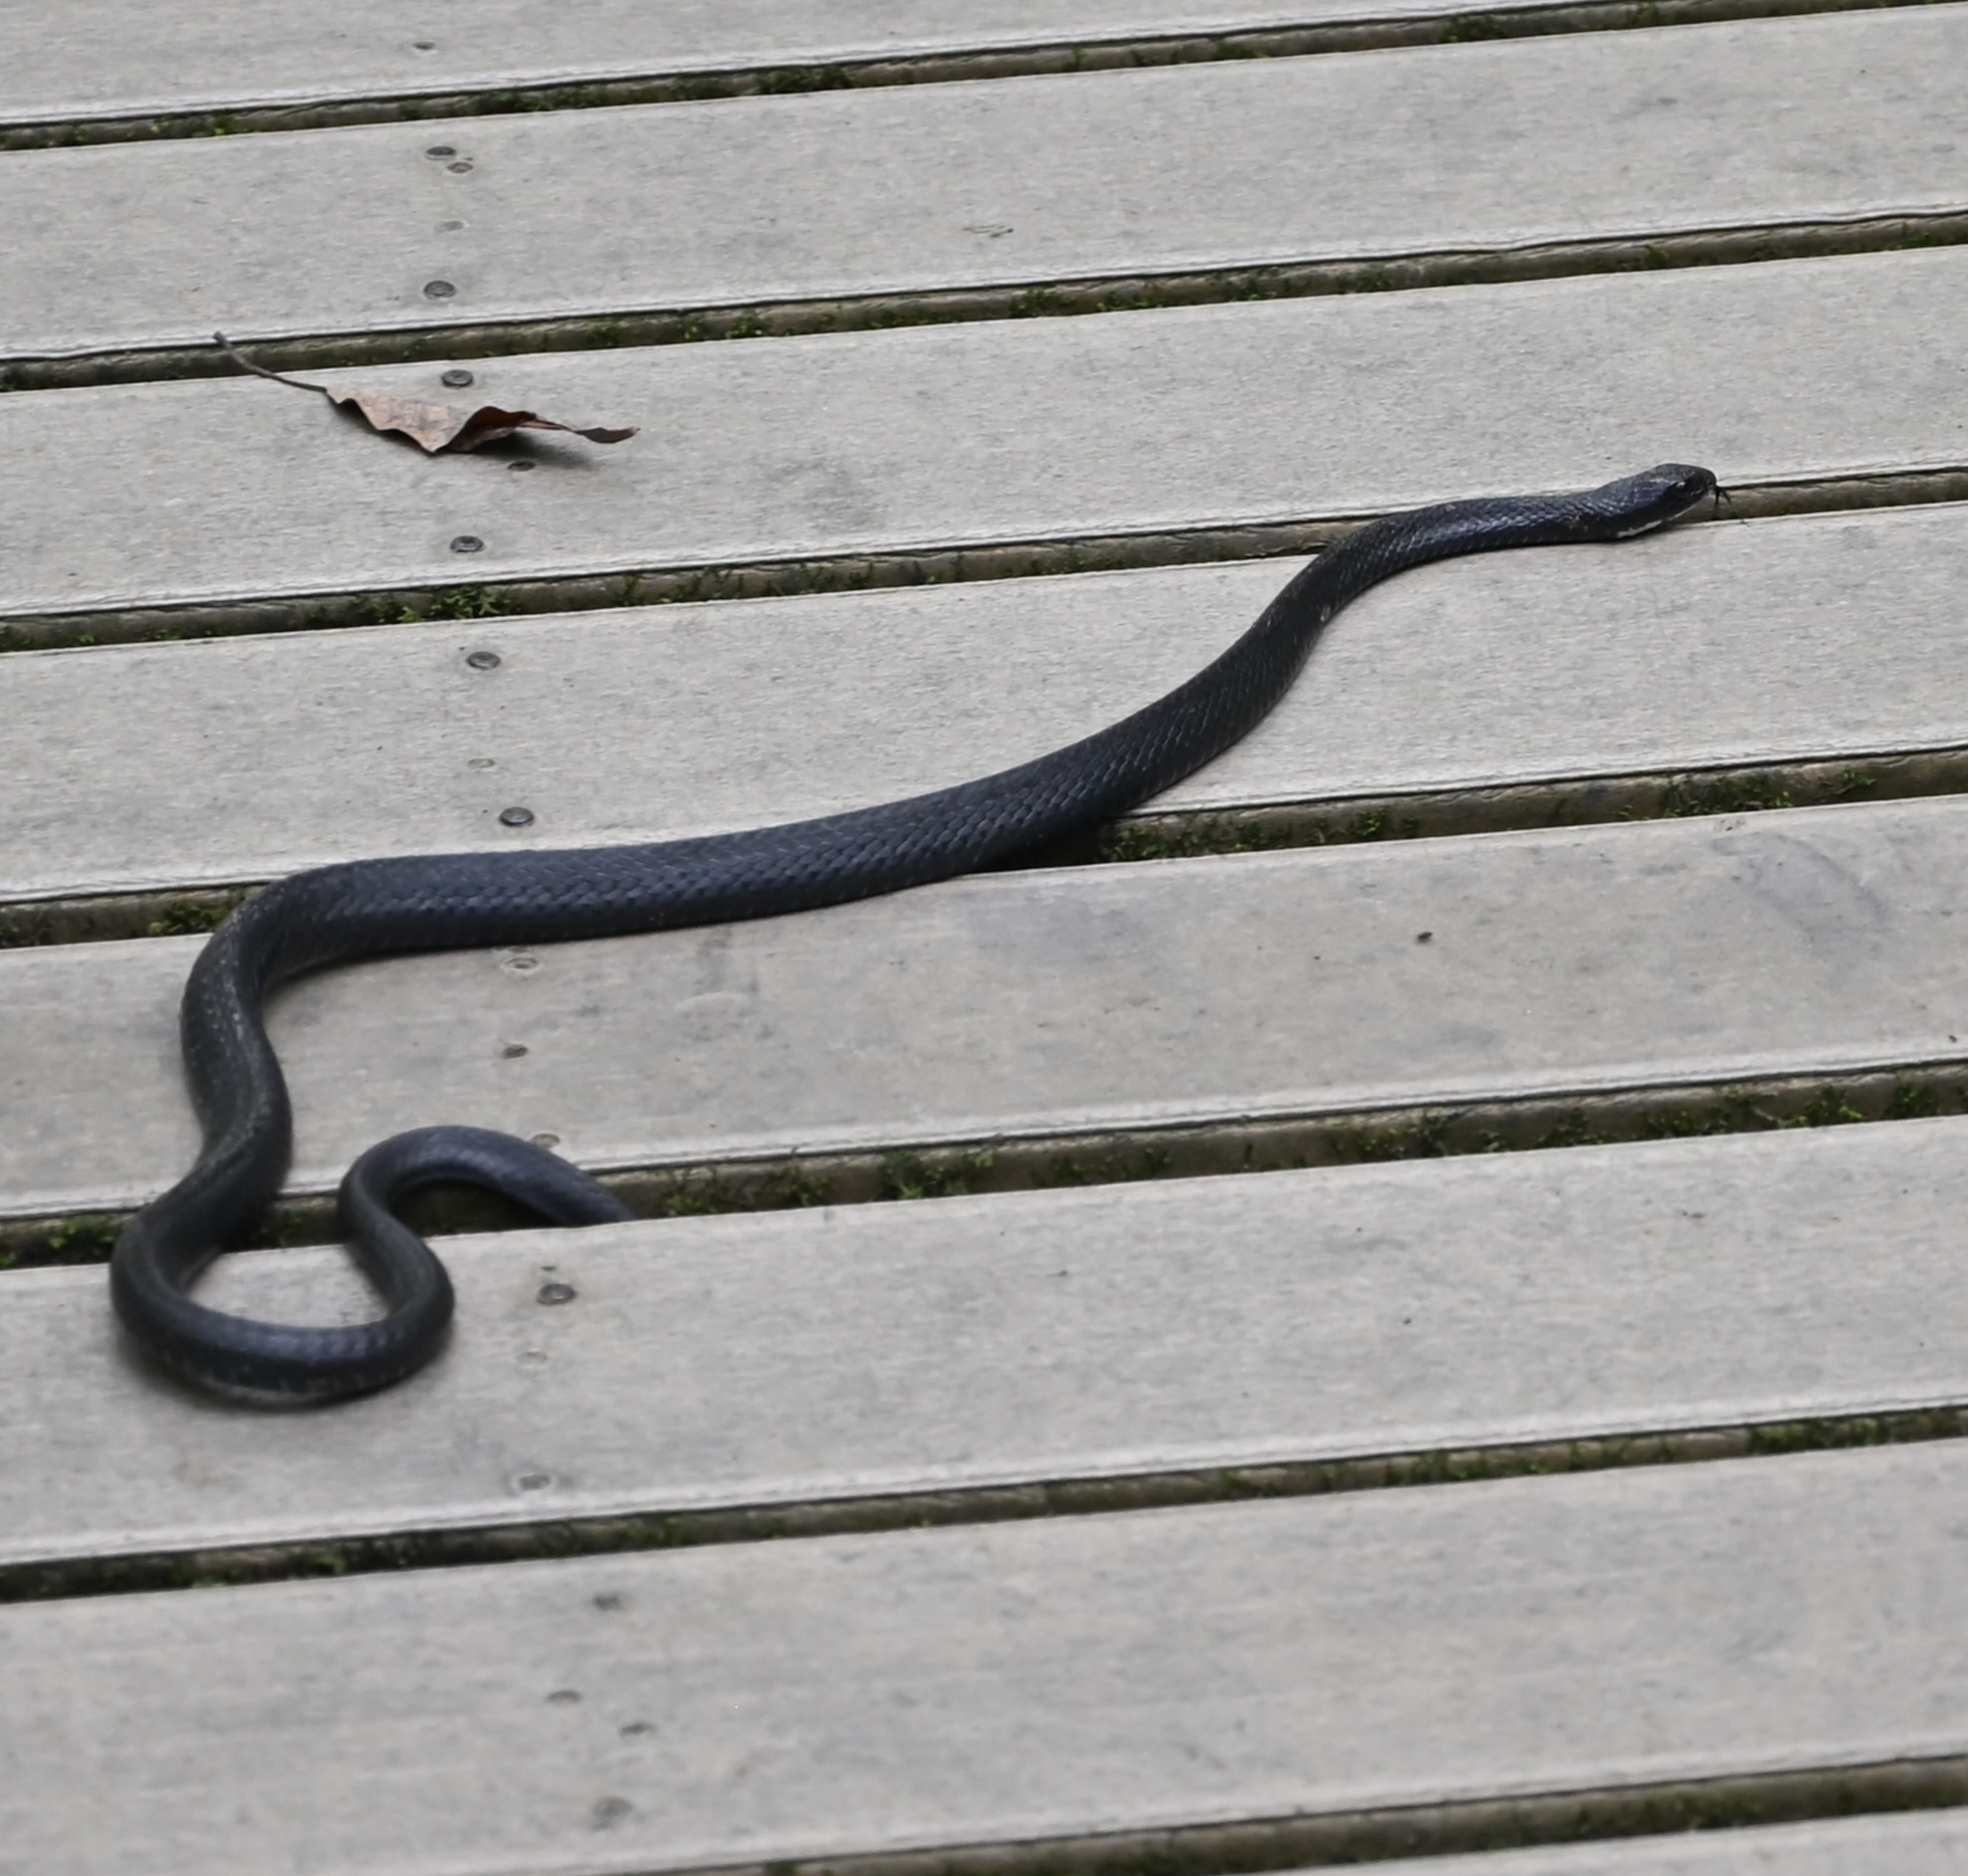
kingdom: Animalia
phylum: Chordata
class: Squamata
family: Colubridae
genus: Coluber
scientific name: Coluber constrictor
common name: Eastern racer
